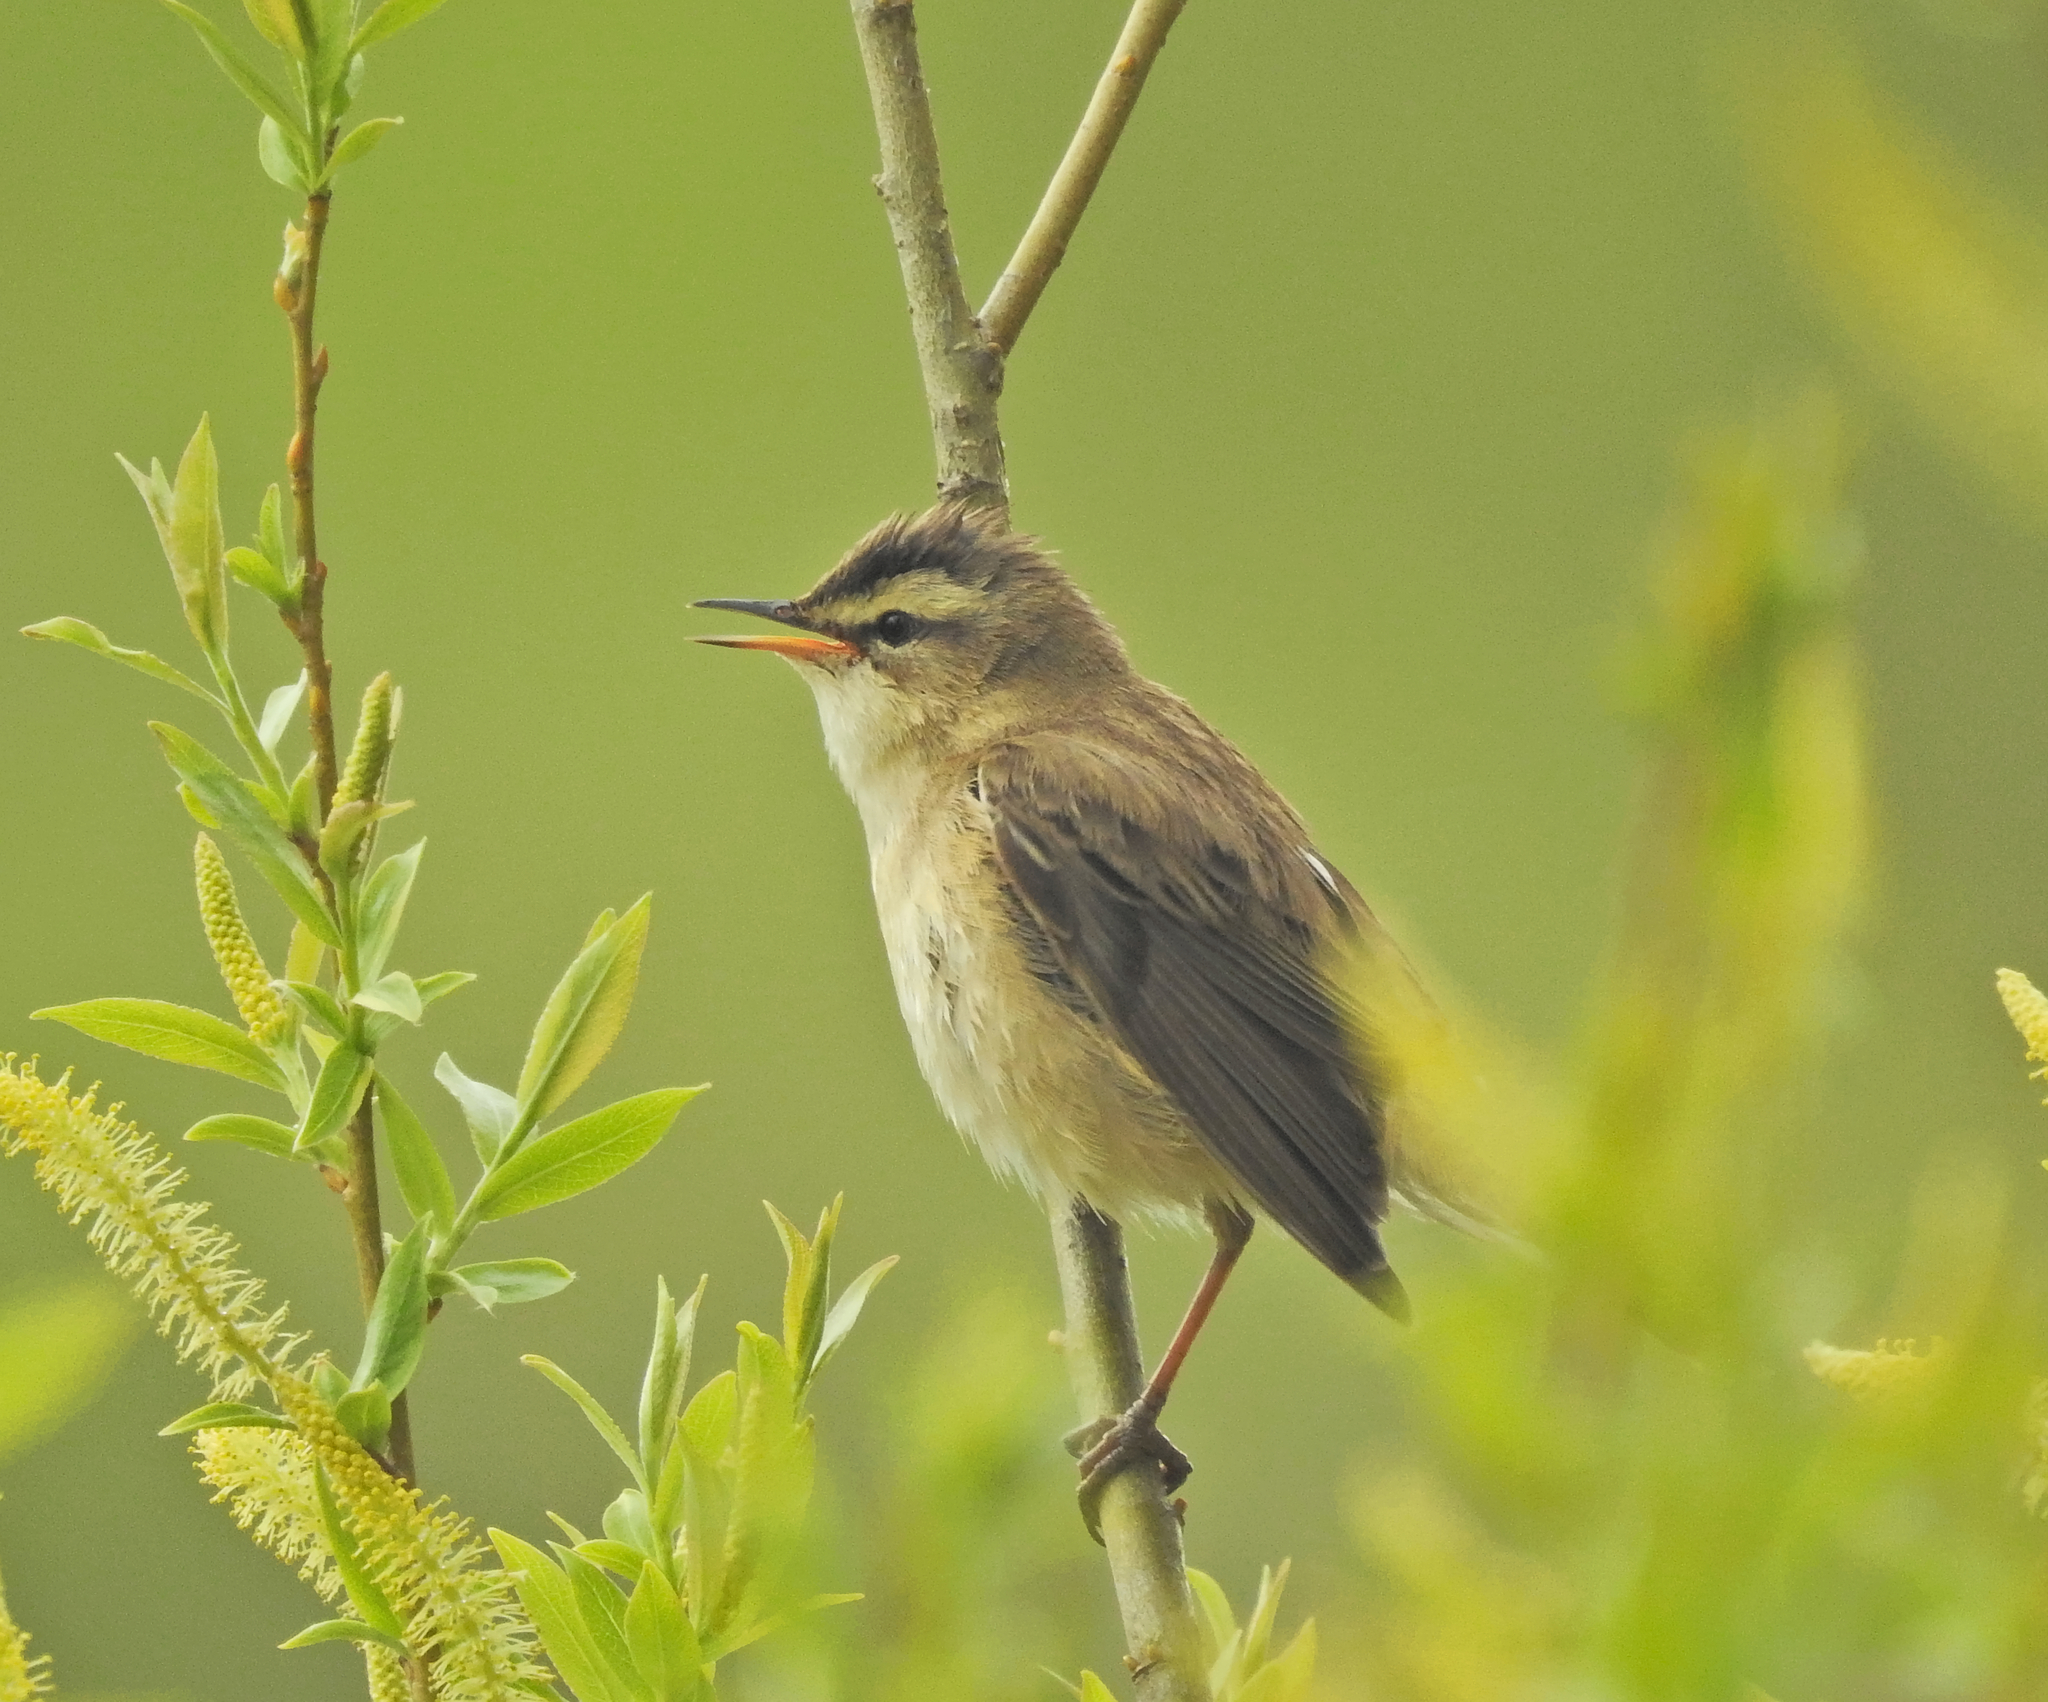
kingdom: Animalia
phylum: Chordata
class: Aves
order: Passeriformes
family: Acrocephalidae
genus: Acrocephalus
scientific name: Acrocephalus schoenobaenus
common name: Sedge warbler
